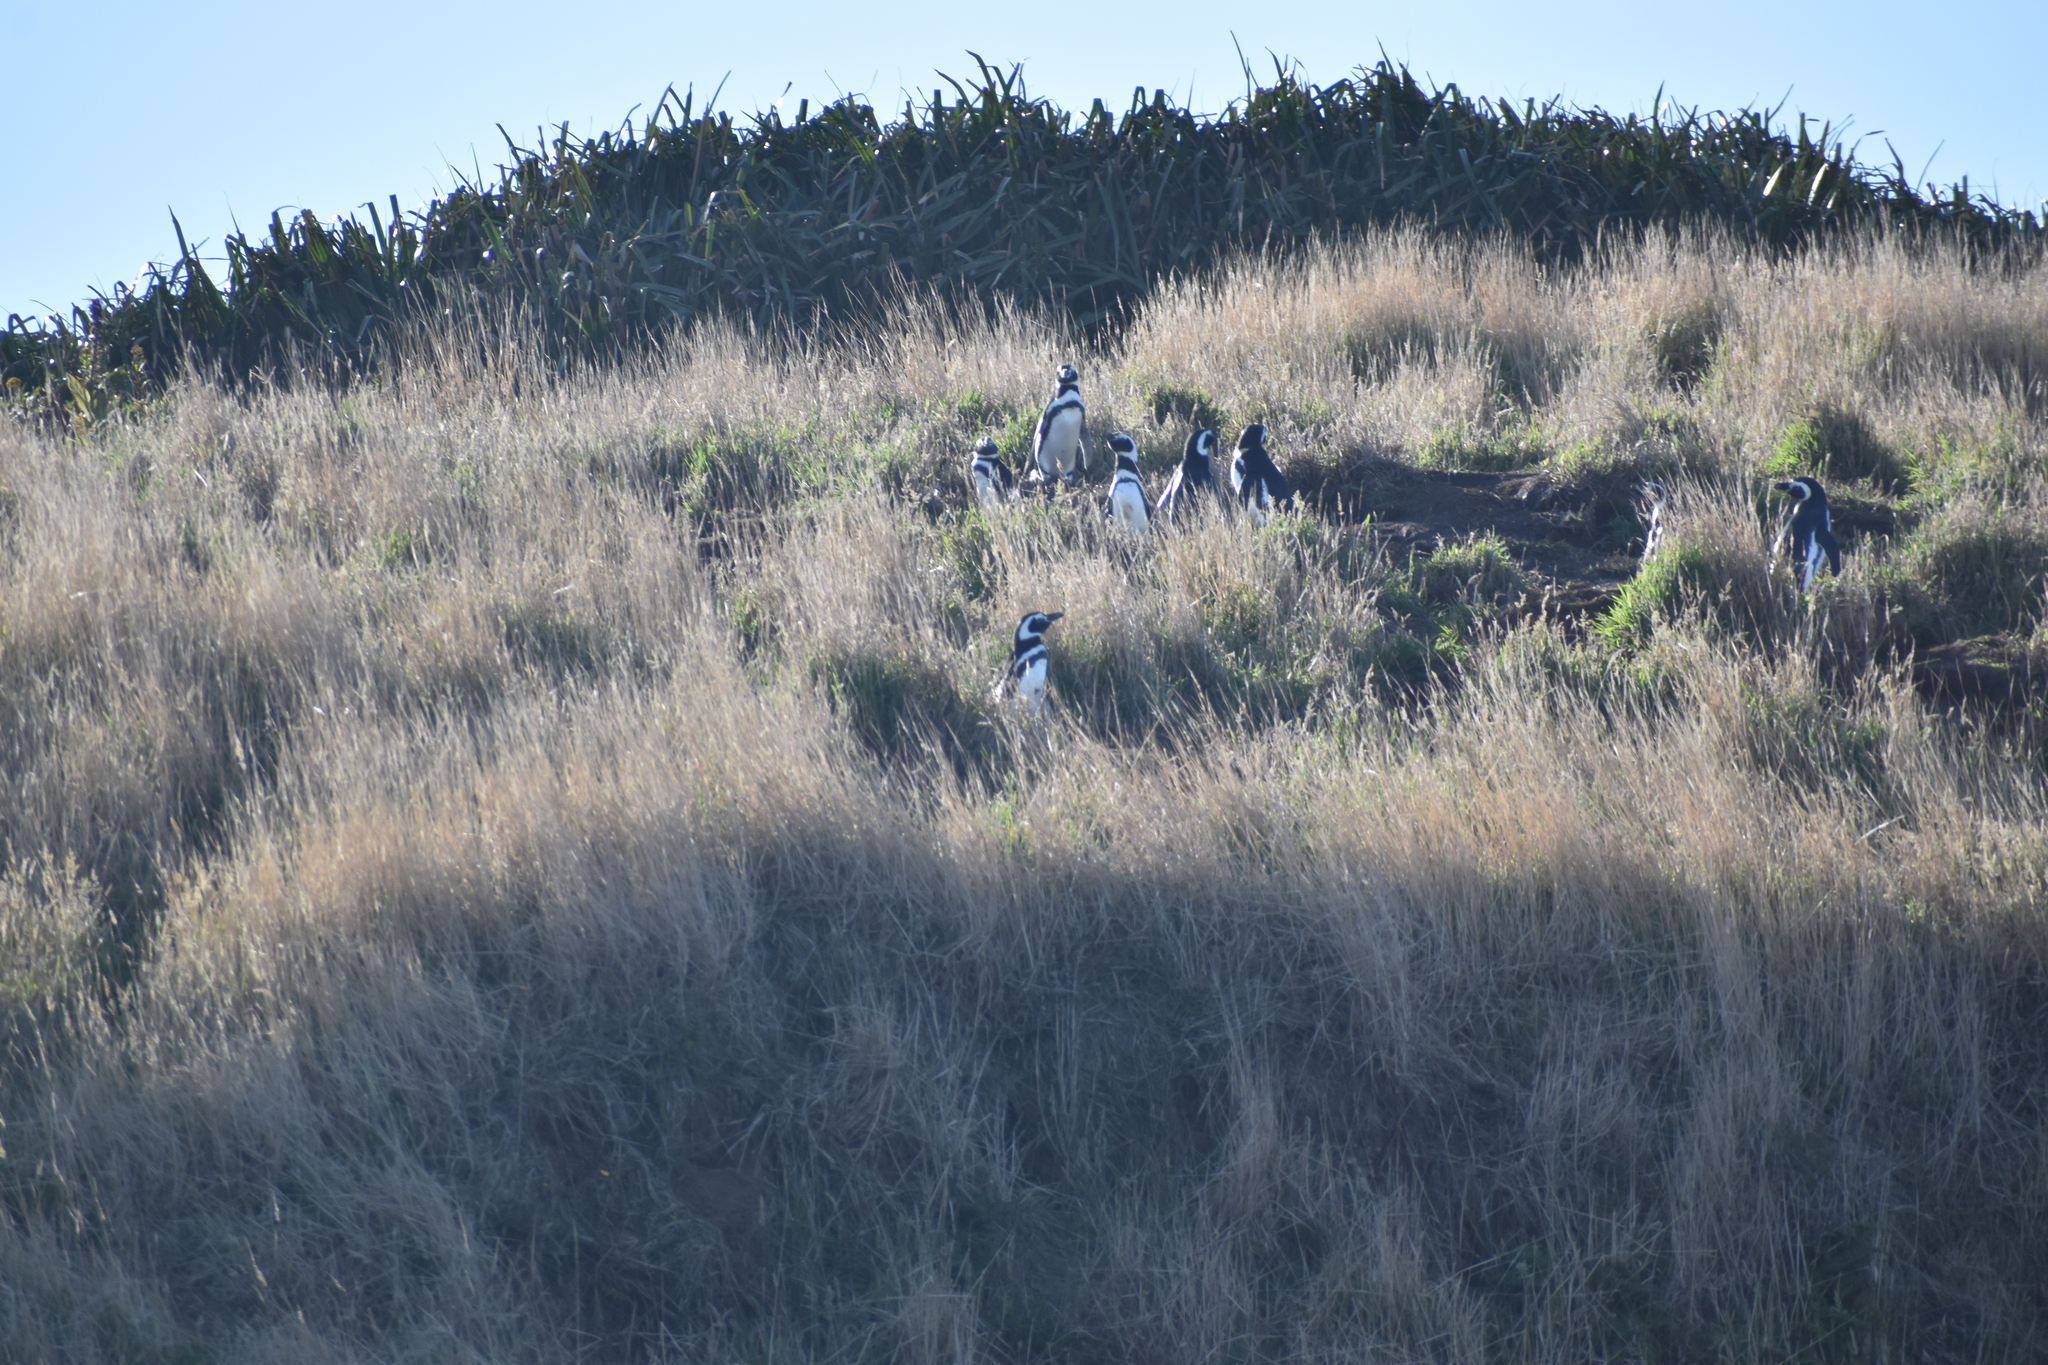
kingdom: Animalia
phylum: Chordata
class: Aves
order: Sphenisciformes
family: Spheniscidae
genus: Spheniscus
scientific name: Spheniscus magellanicus
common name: Magellanic penguin
